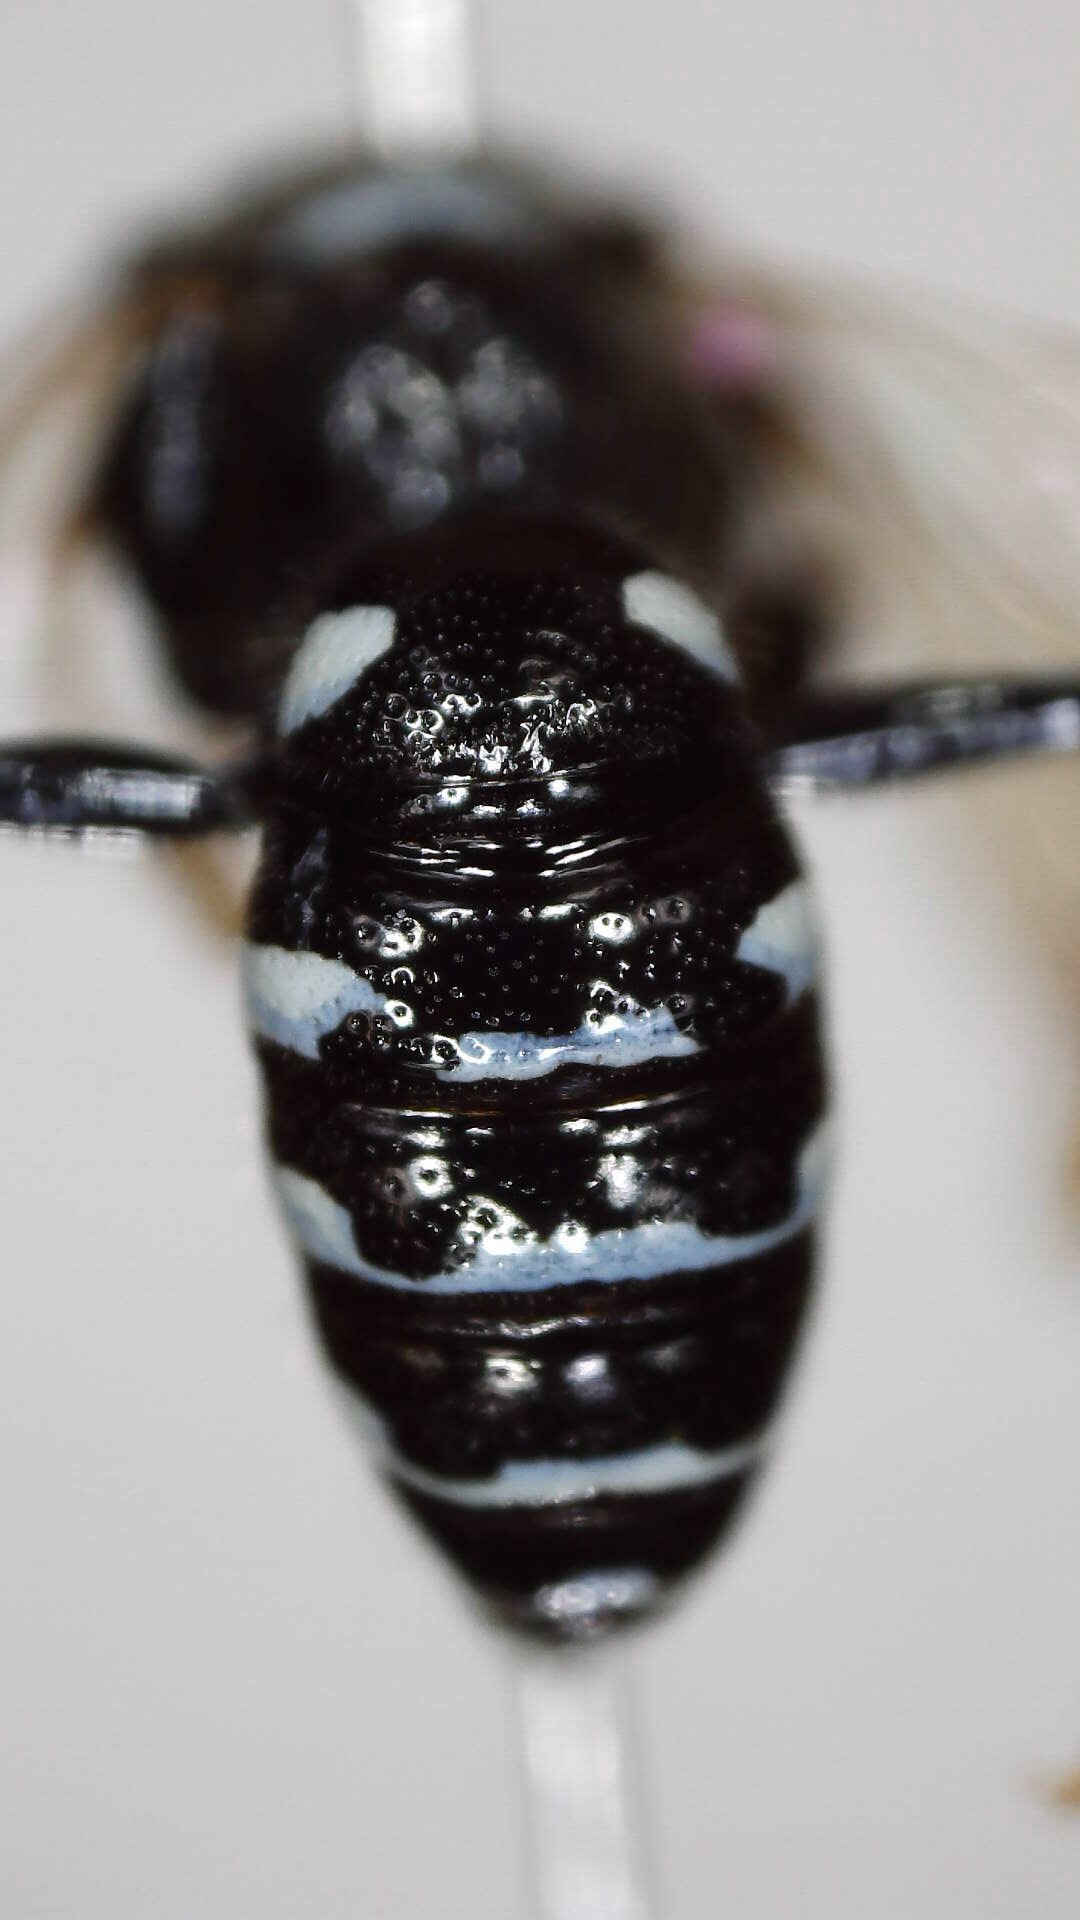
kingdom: Animalia
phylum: Arthropoda
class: Insecta
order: Hymenoptera
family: Crabronidae
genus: Philanthus
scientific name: Philanthus politus
